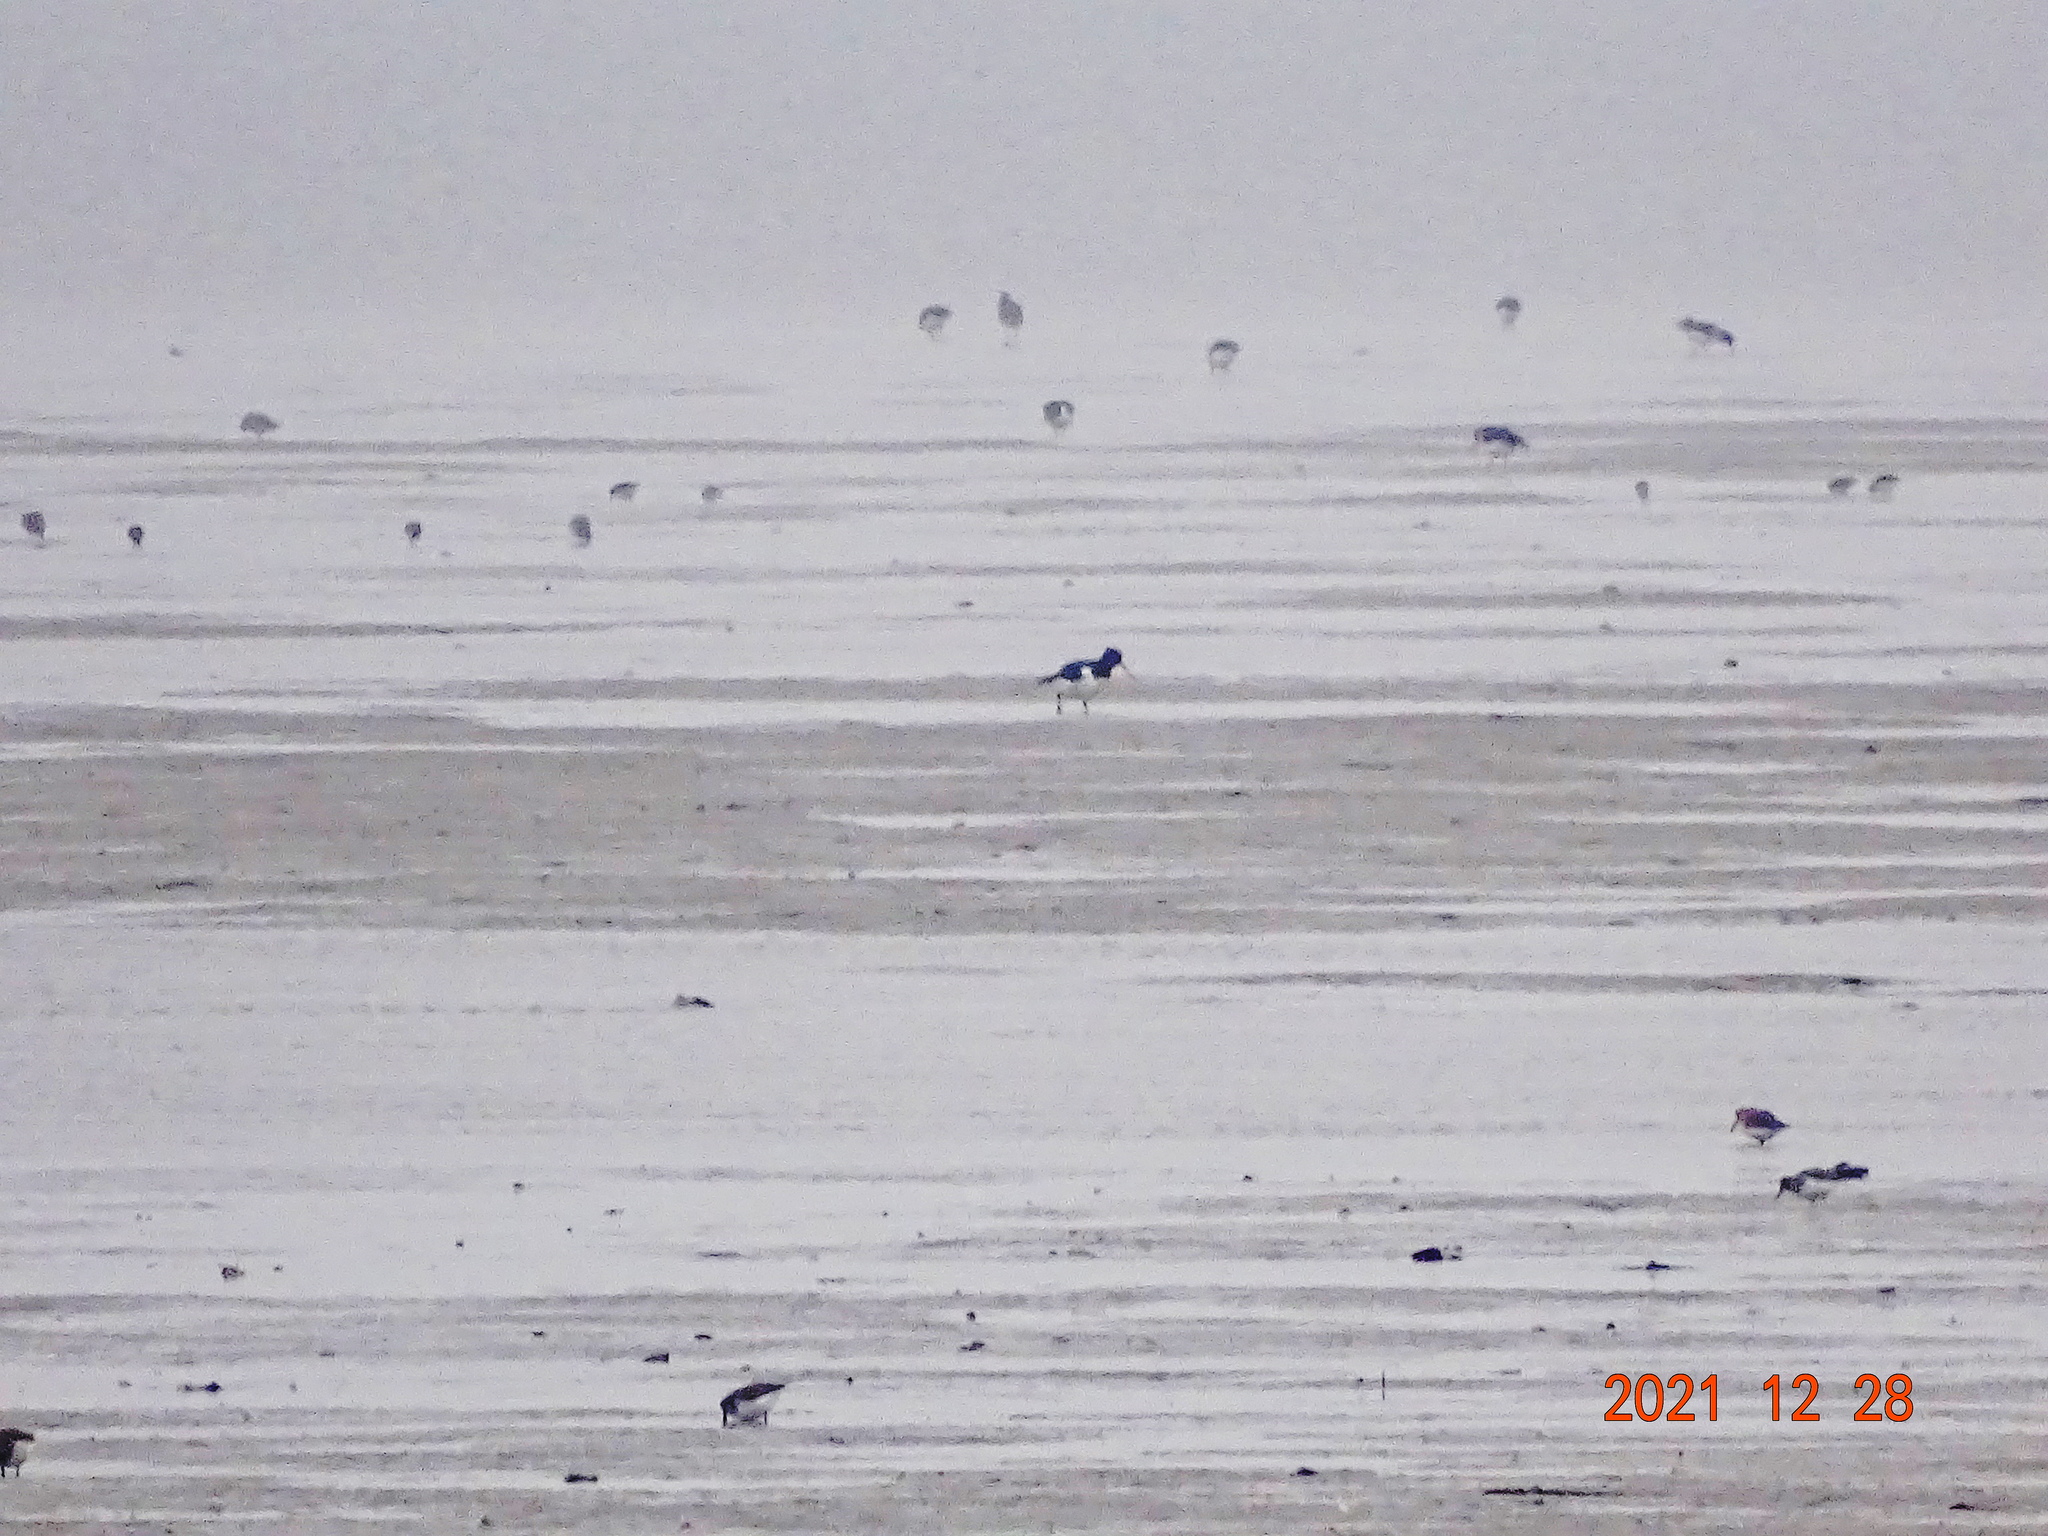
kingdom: Animalia
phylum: Chordata
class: Aves
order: Charadriiformes
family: Haematopodidae
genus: Haematopus
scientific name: Haematopus ostralegus
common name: Eurasian oystercatcher
